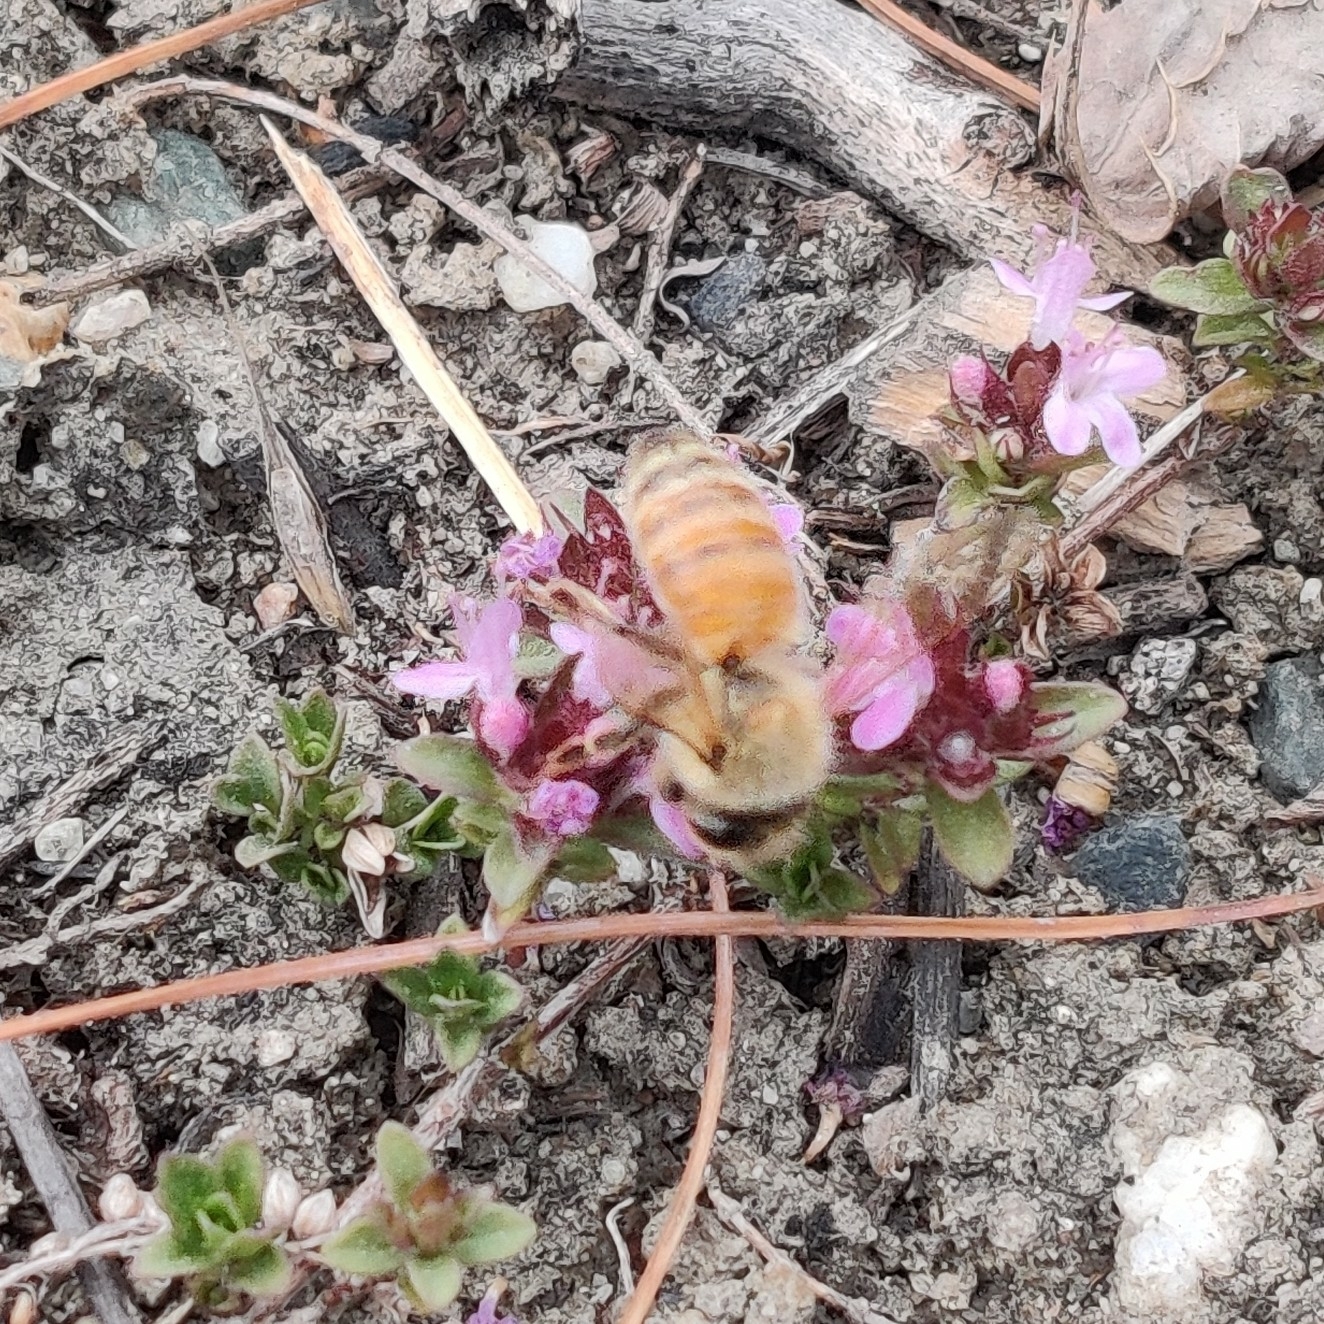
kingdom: Animalia
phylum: Arthropoda
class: Insecta
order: Hymenoptera
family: Apidae
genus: Apis
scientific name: Apis mellifera
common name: Honey bee
